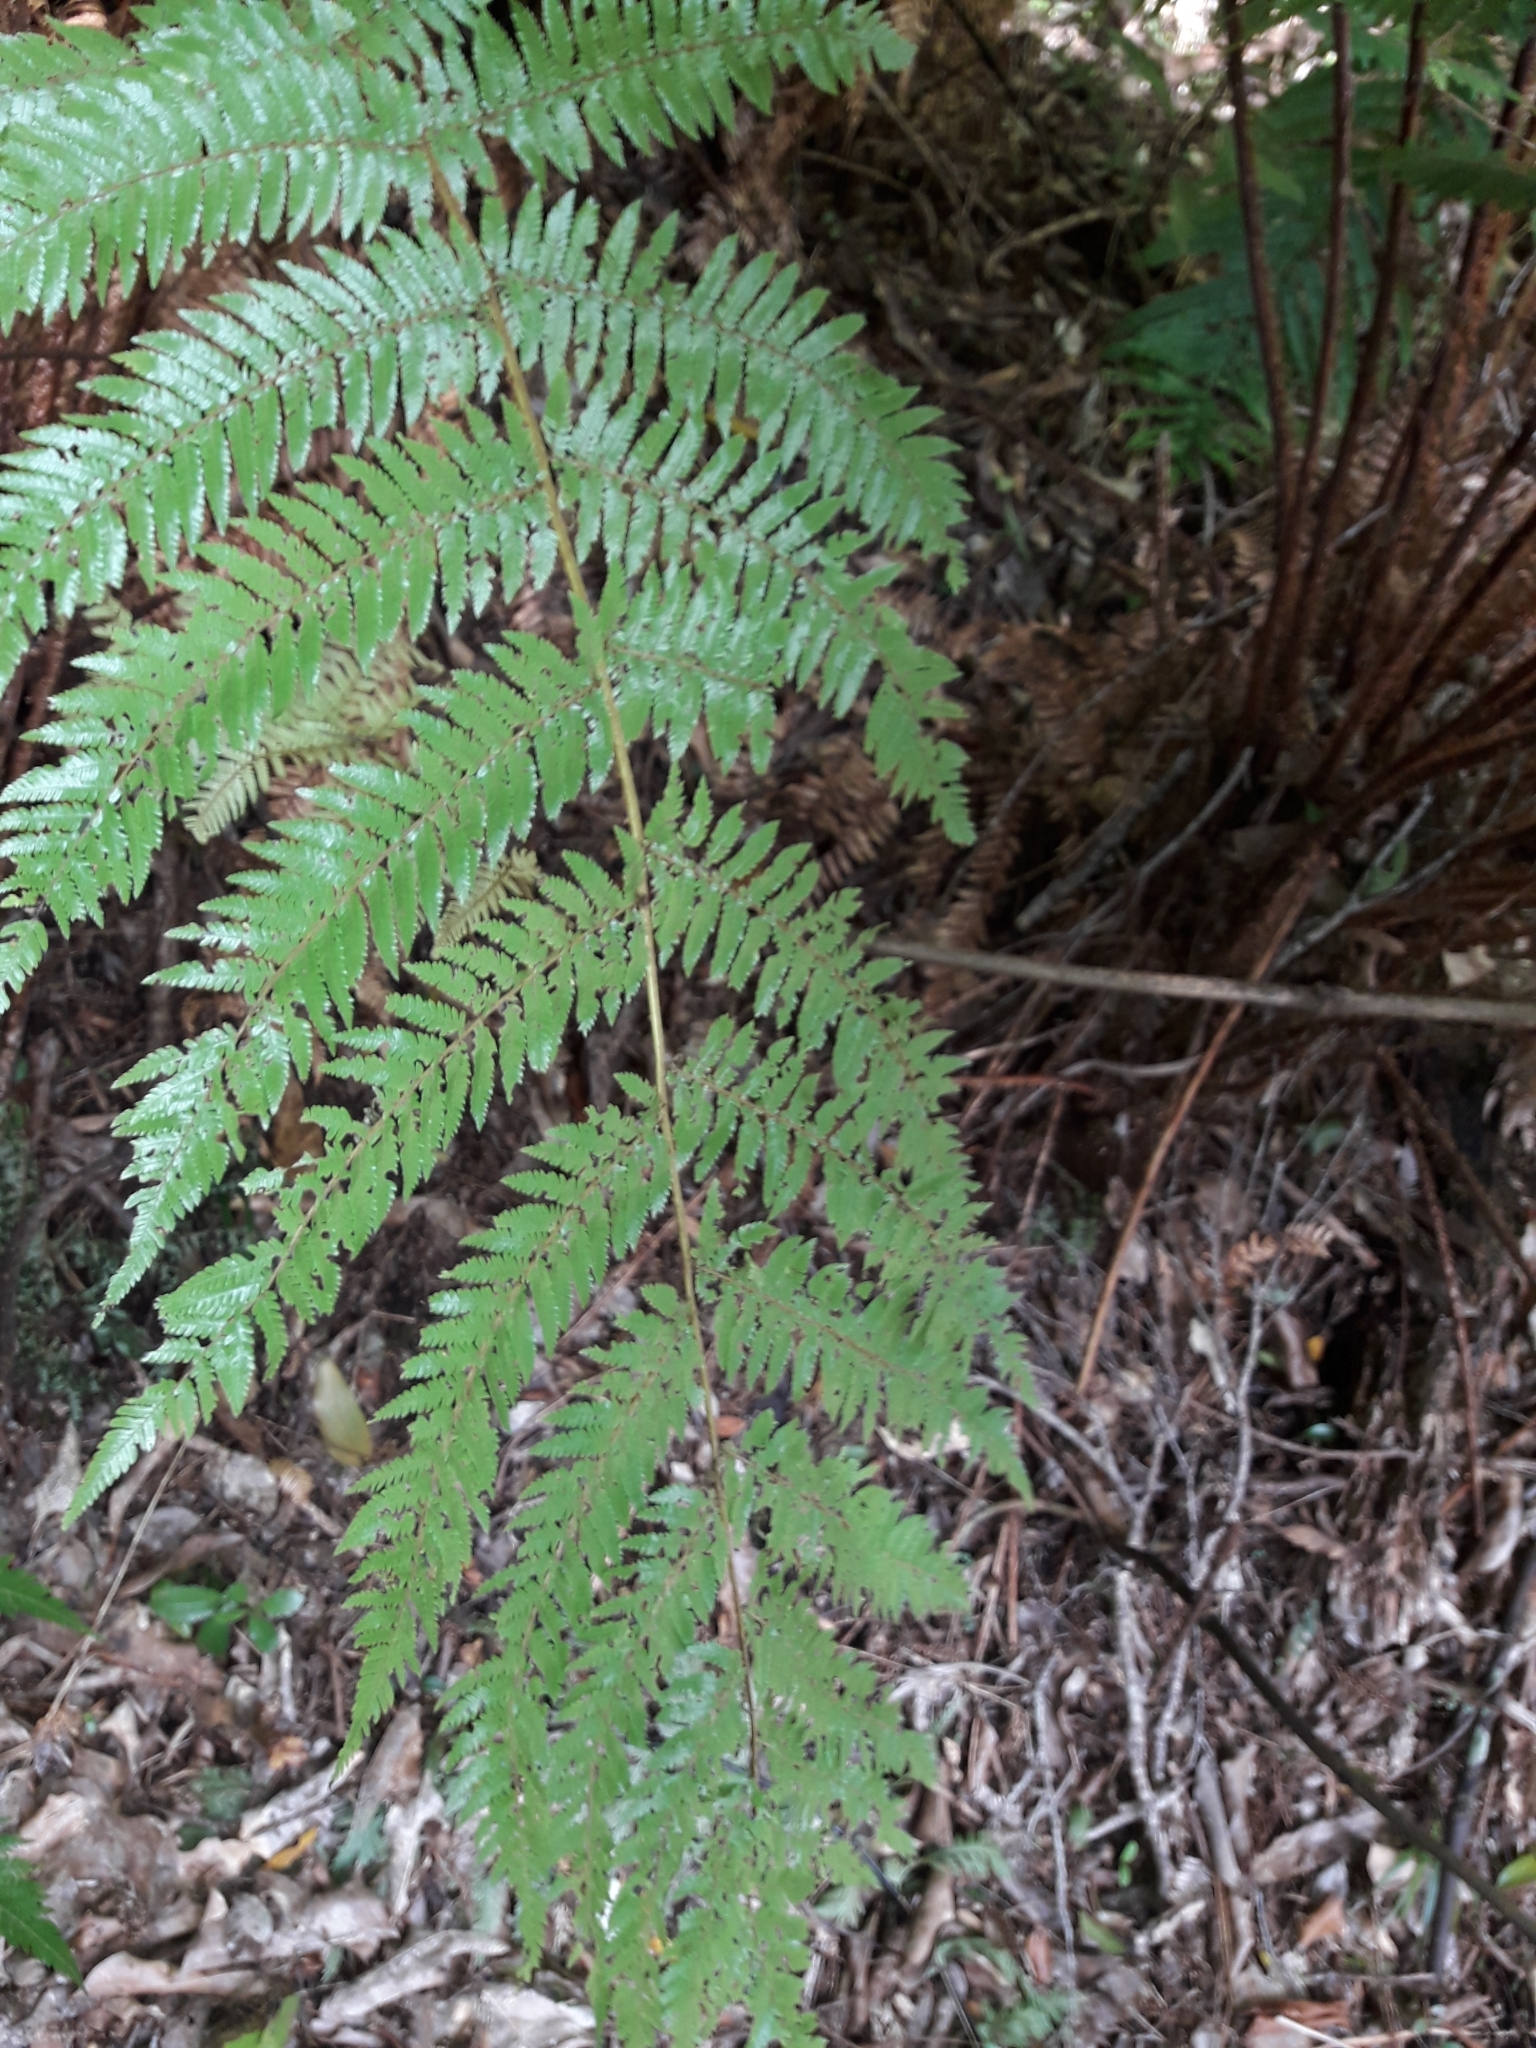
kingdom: Plantae
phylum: Tracheophyta
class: Polypodiopsida
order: Cyatheales
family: Cyatheaceae
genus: Alsophila
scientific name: Alsophila smithii
